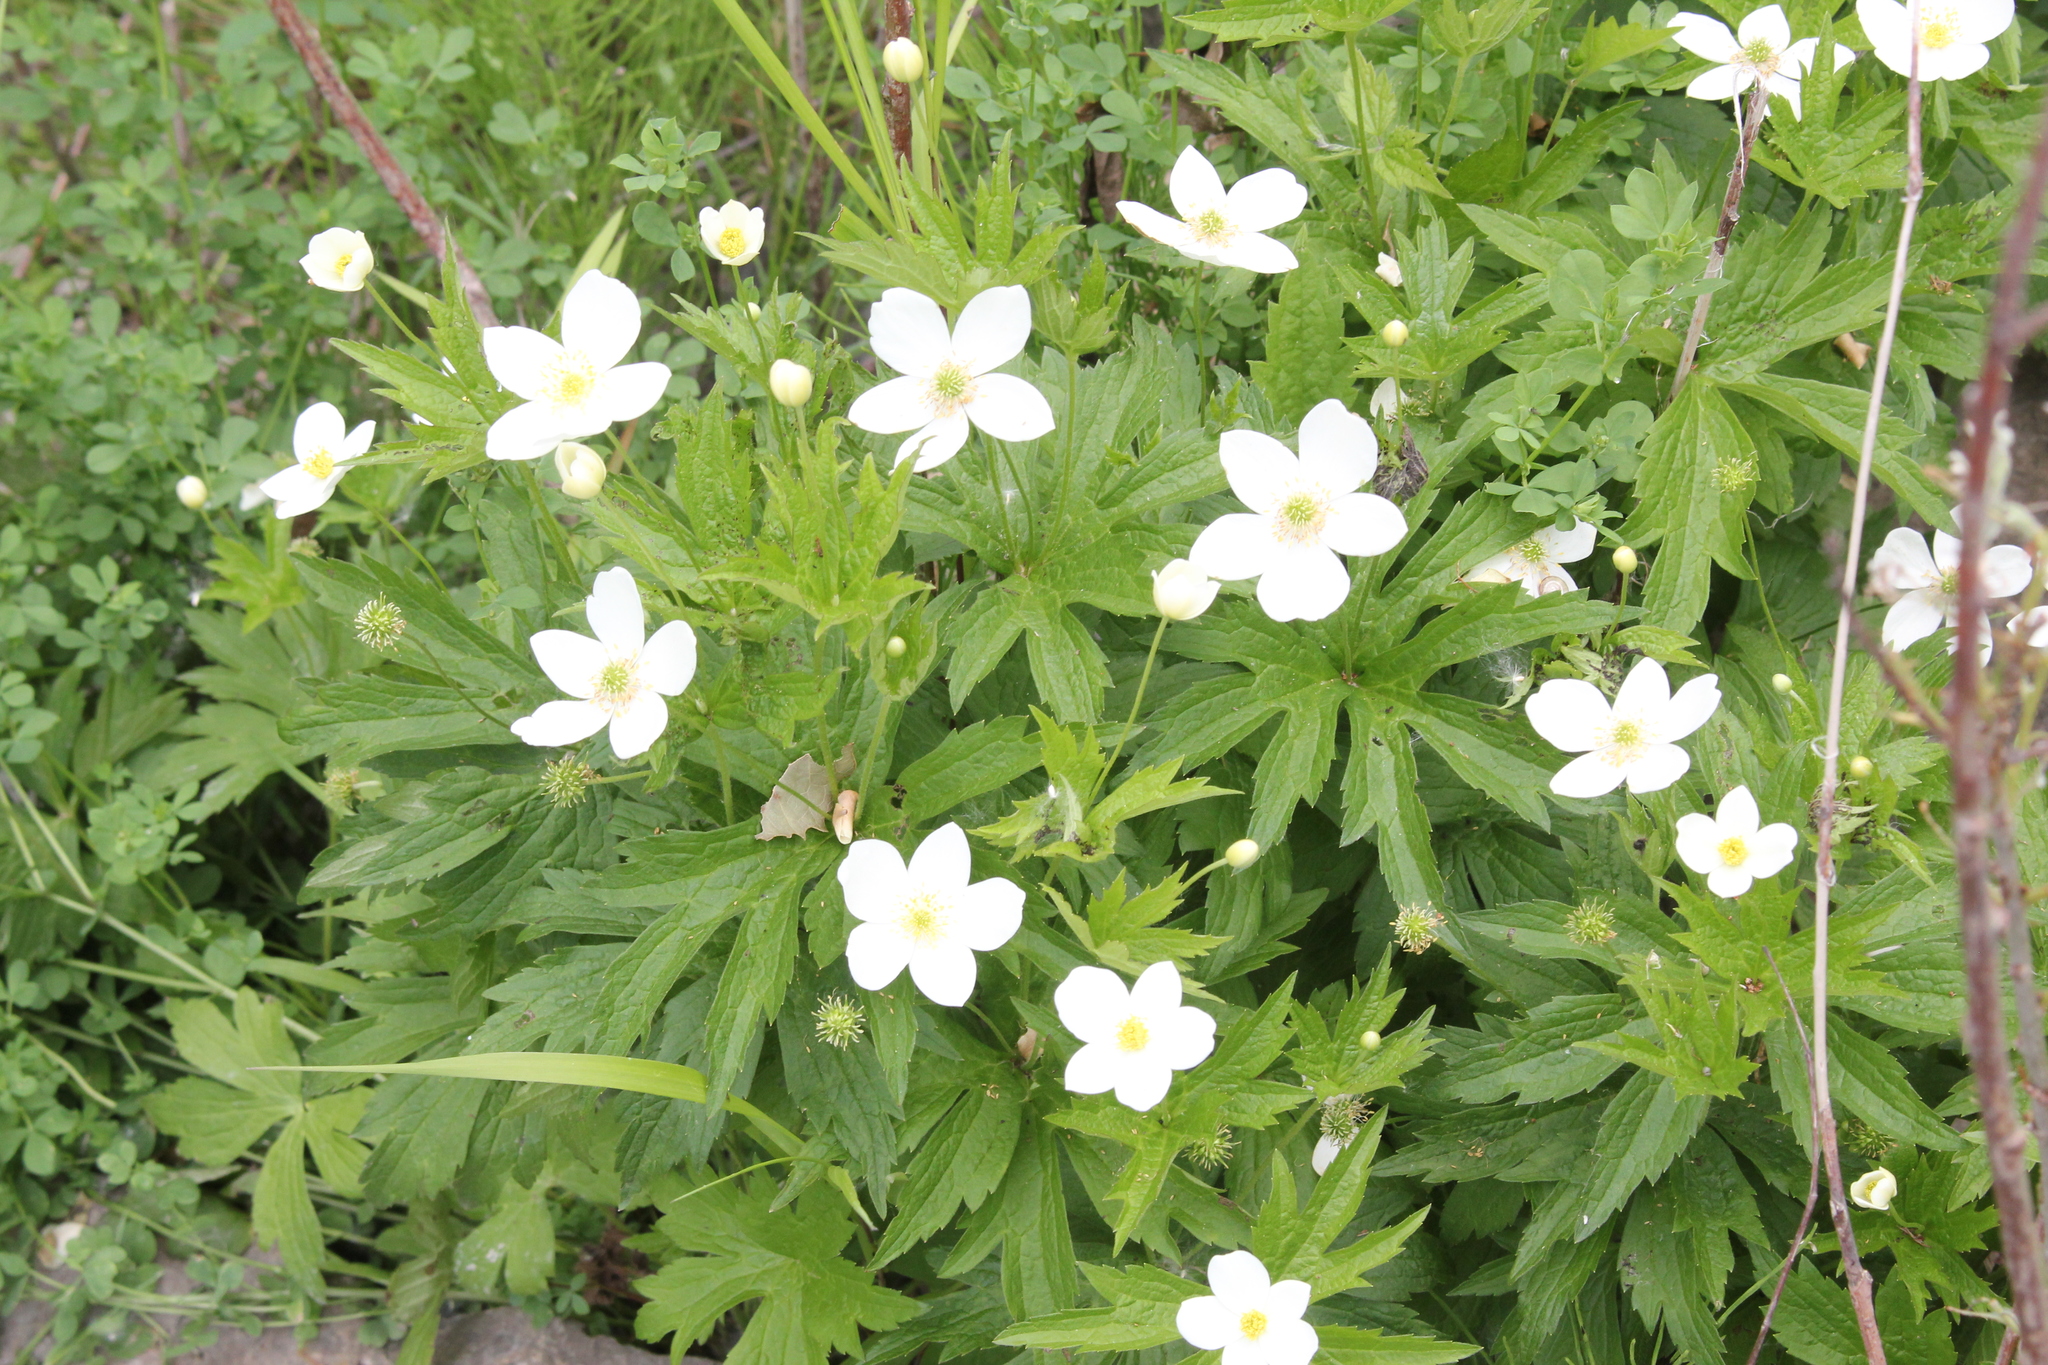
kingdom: Plantae
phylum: Tracheophyta
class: Magnoliopsida
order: Ranunculales
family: Ranunculaceae
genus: Anemonastrum
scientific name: Anemonastrum canadense
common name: Canada anemone
